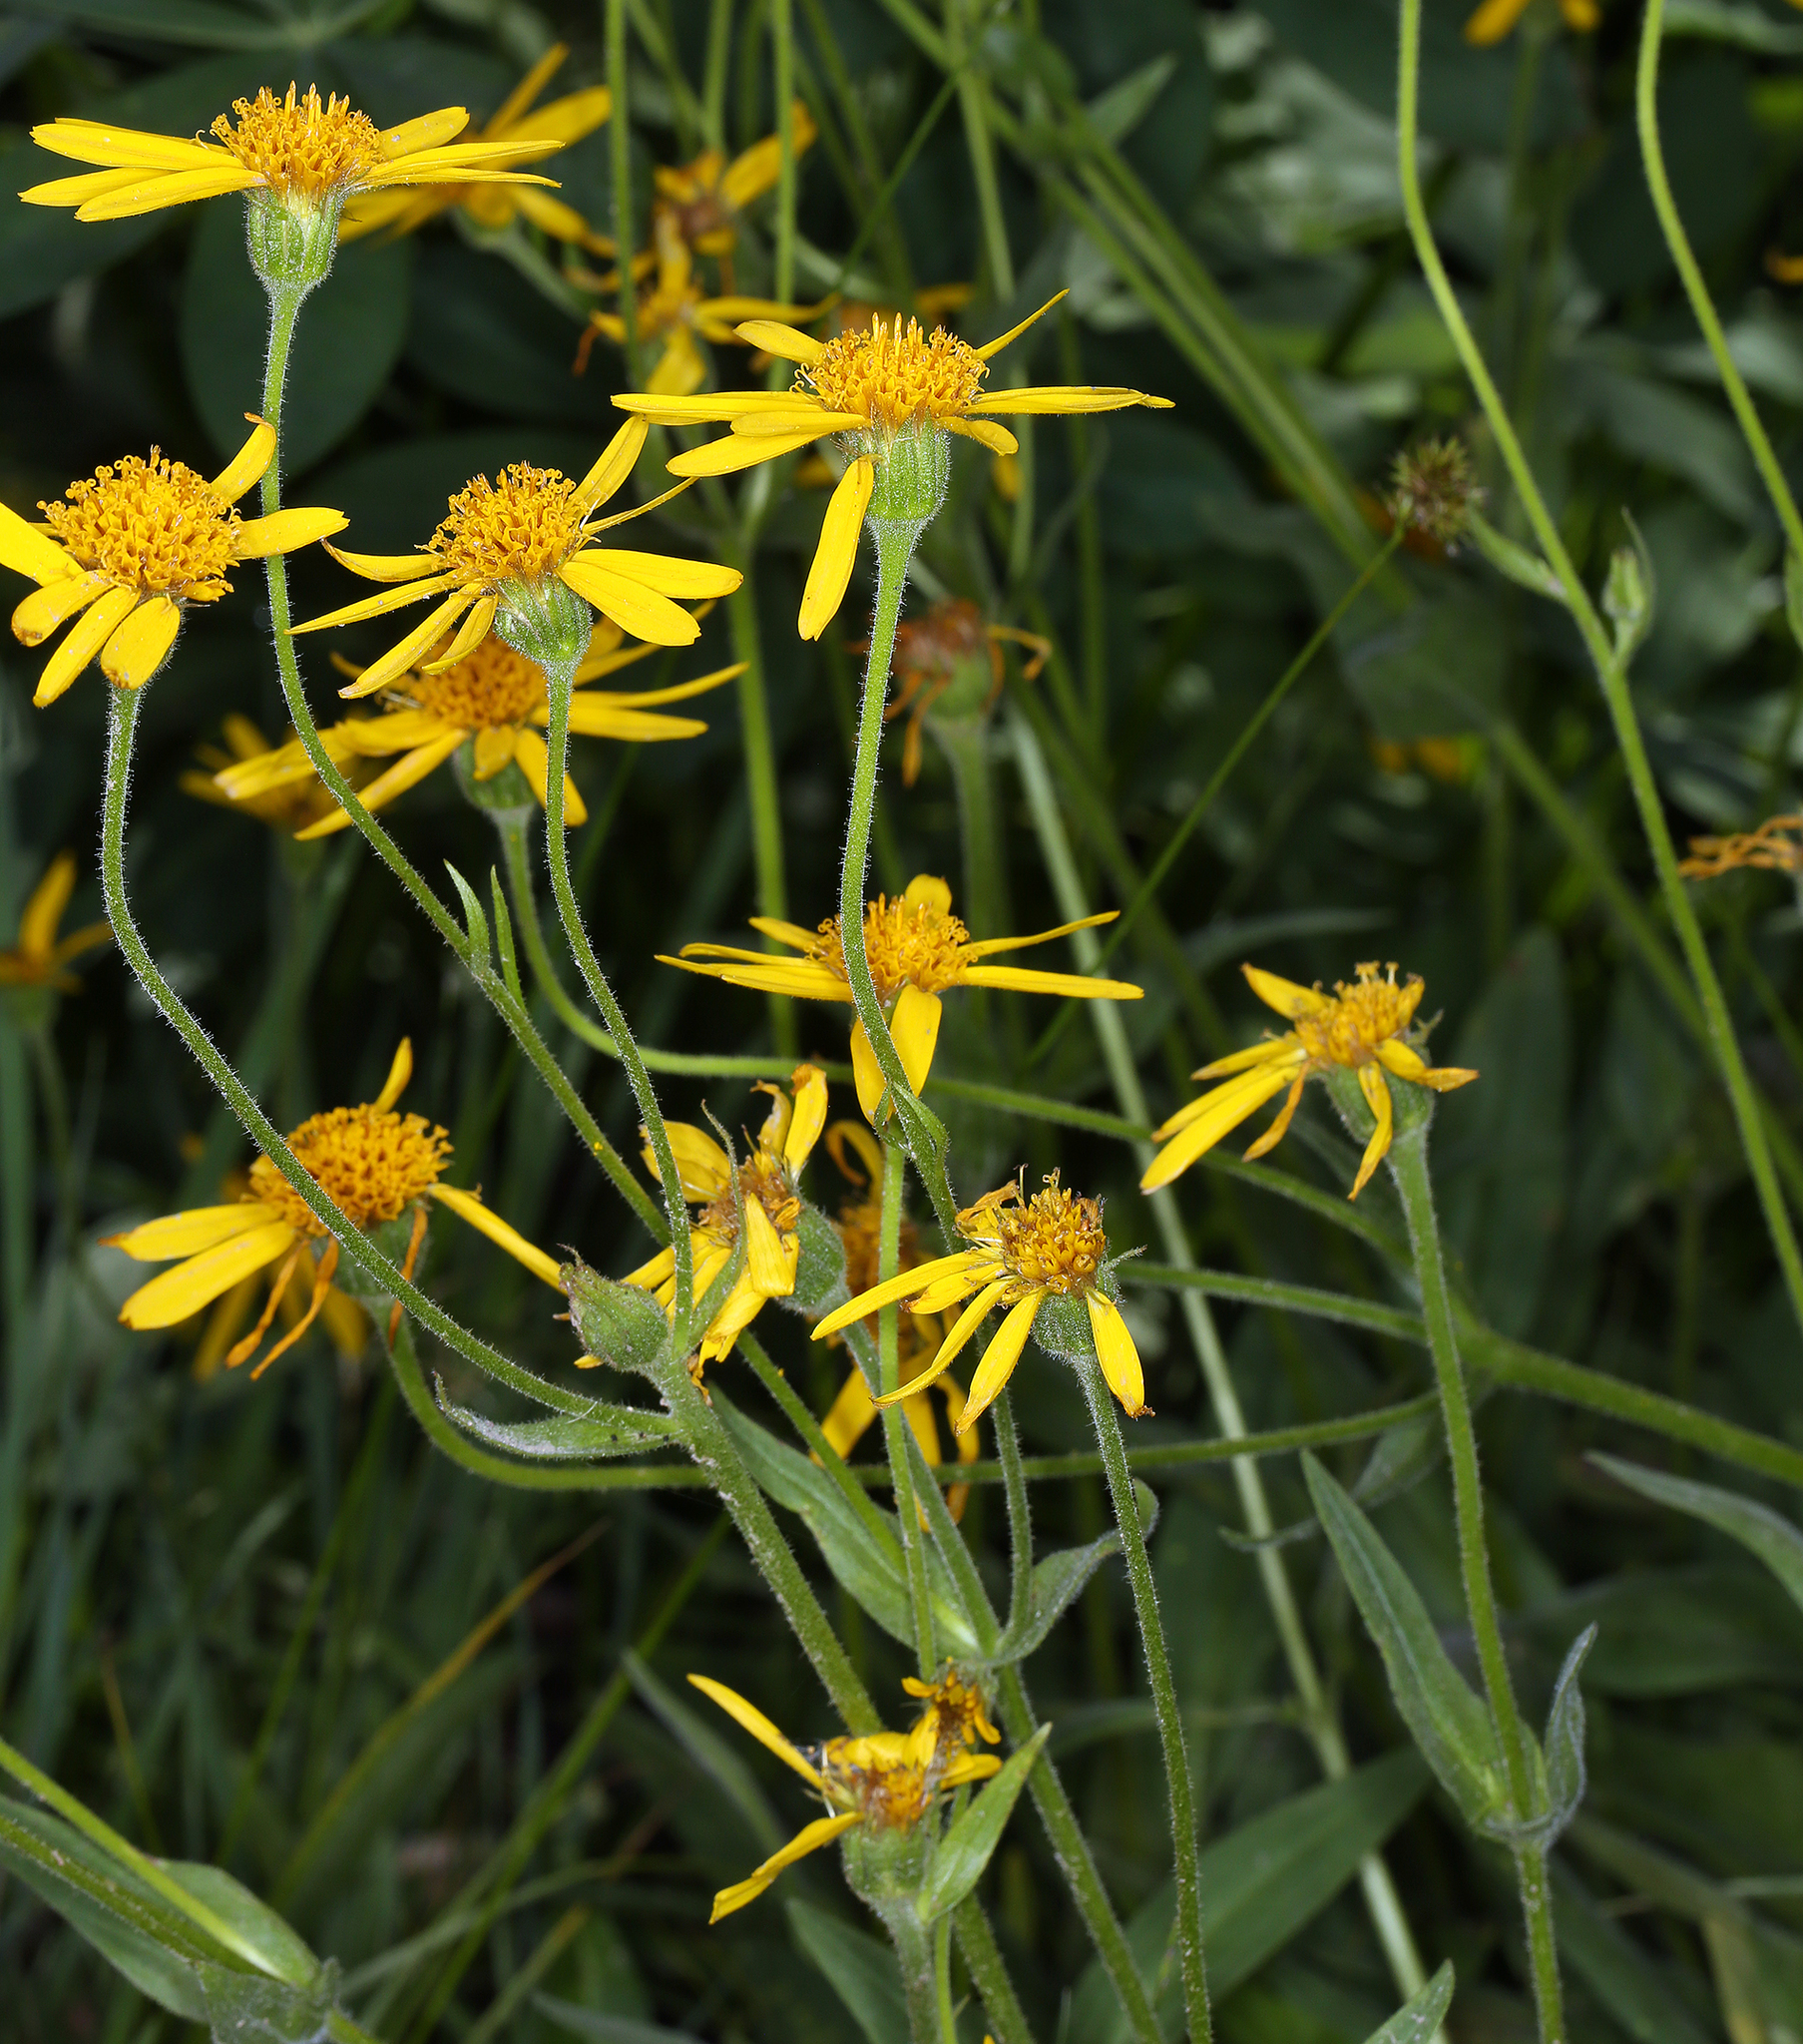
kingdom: Plantae
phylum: Tracheophyta
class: Magnoliopsida
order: Asterales
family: Asteraceae
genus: Arnica
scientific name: Arnica longifolia
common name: Spear-leaf arnica
